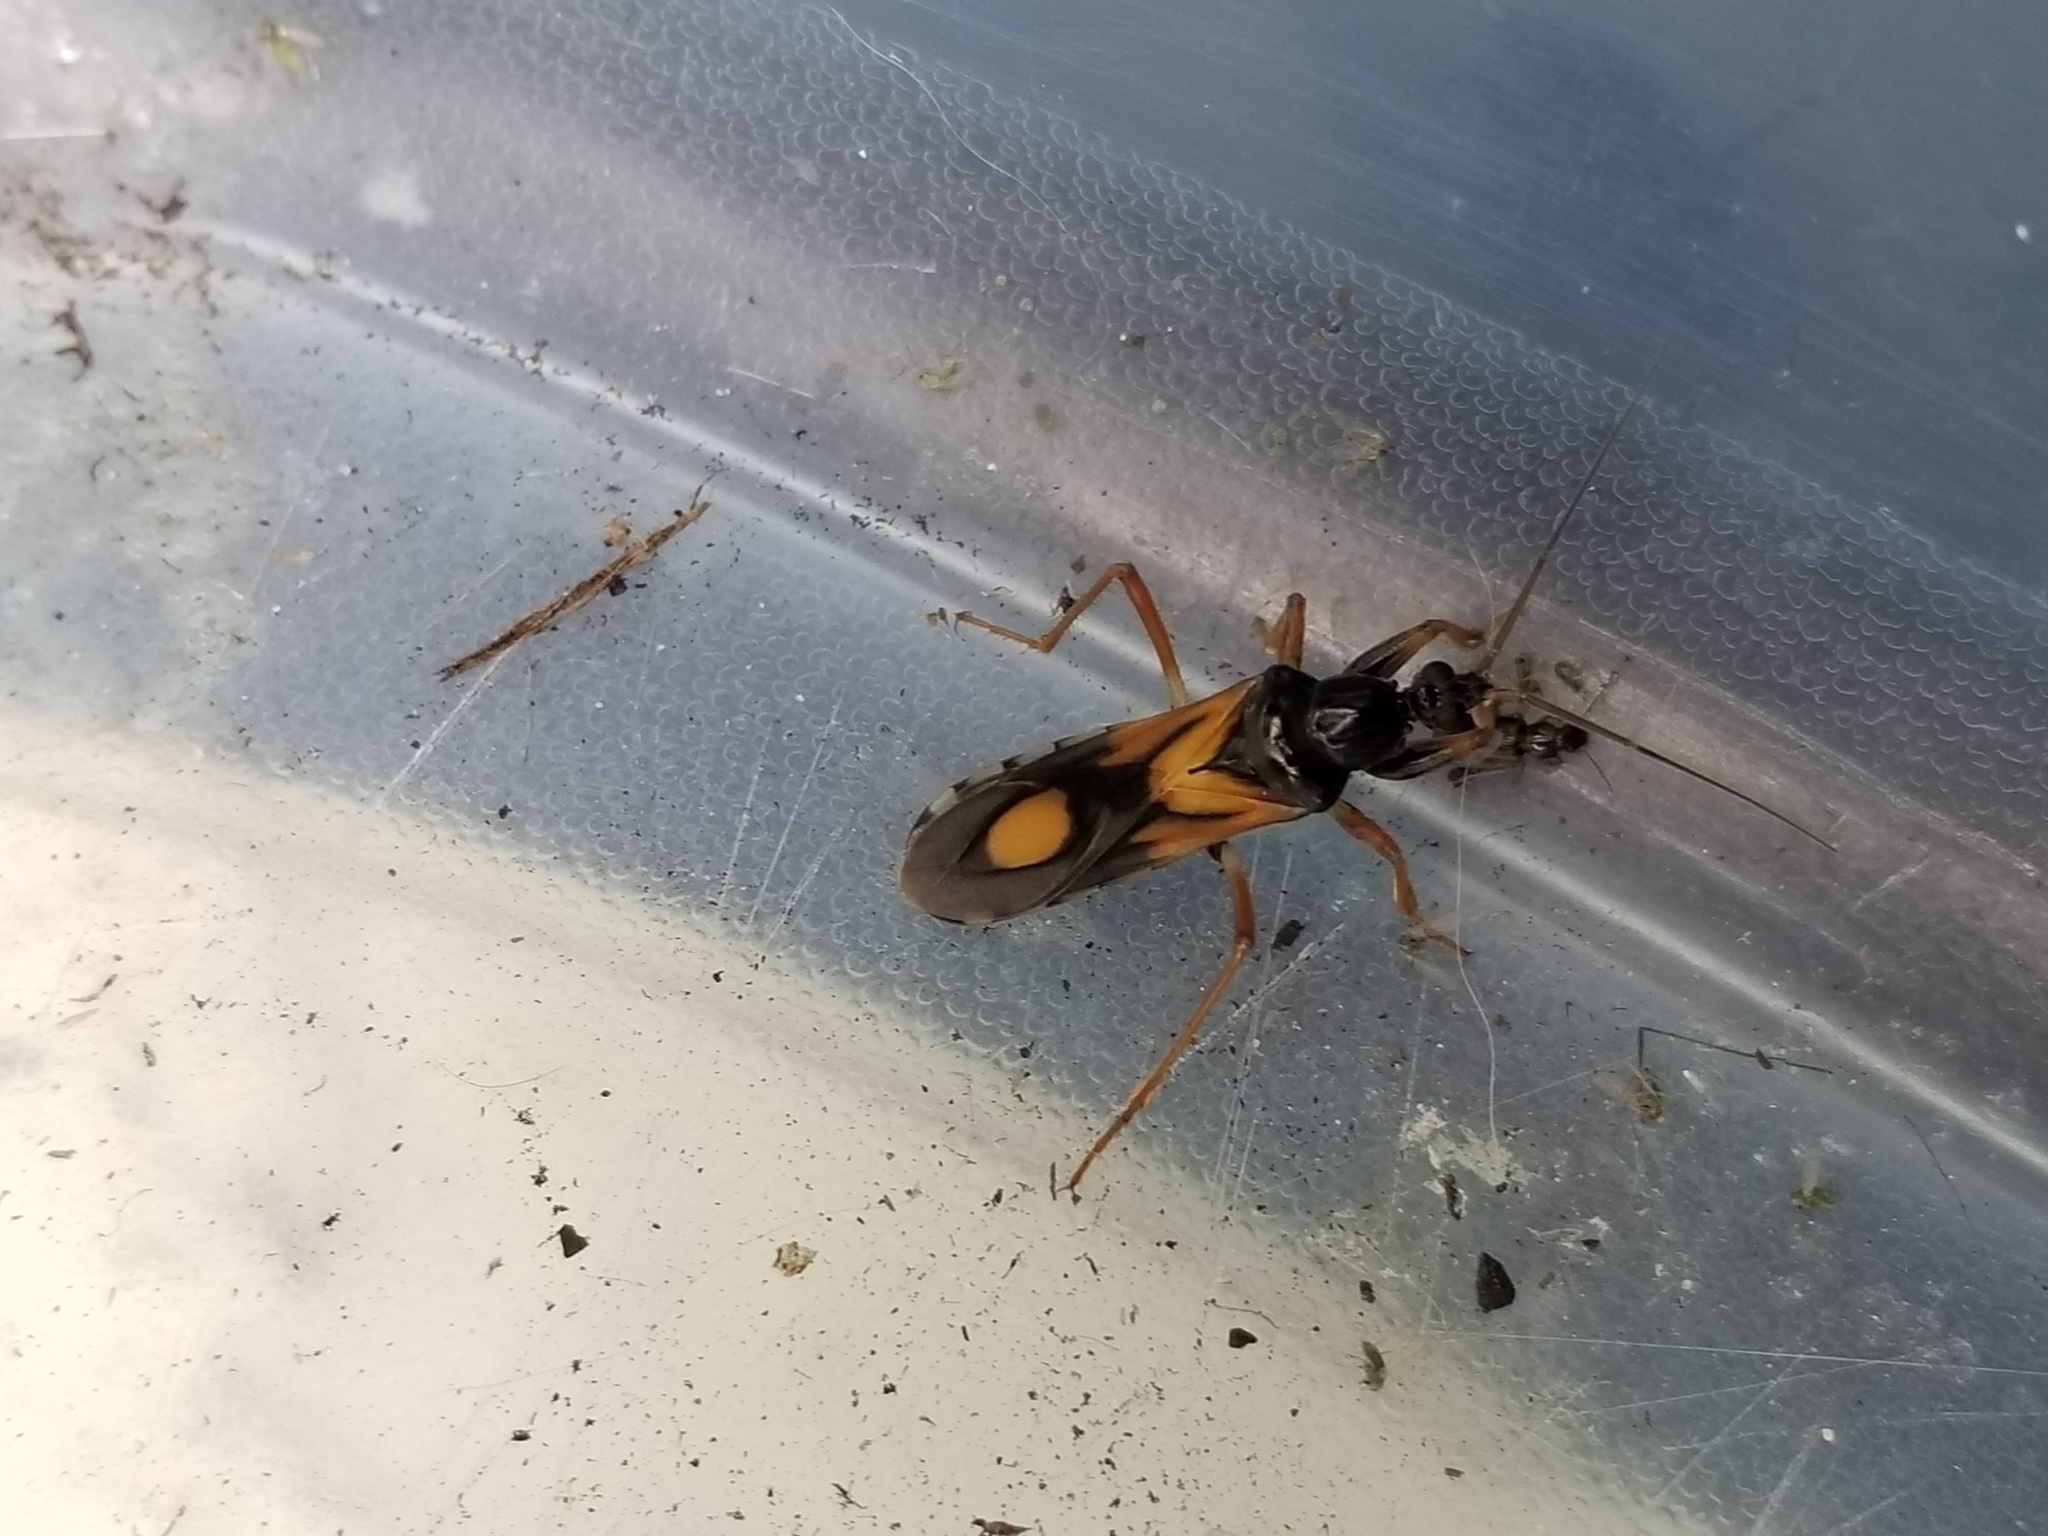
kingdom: Animalia
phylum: Arthropoda
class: Insecta
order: Hemiptera
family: Reduviidae
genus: Rasahus
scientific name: Rasahus biguttatus
